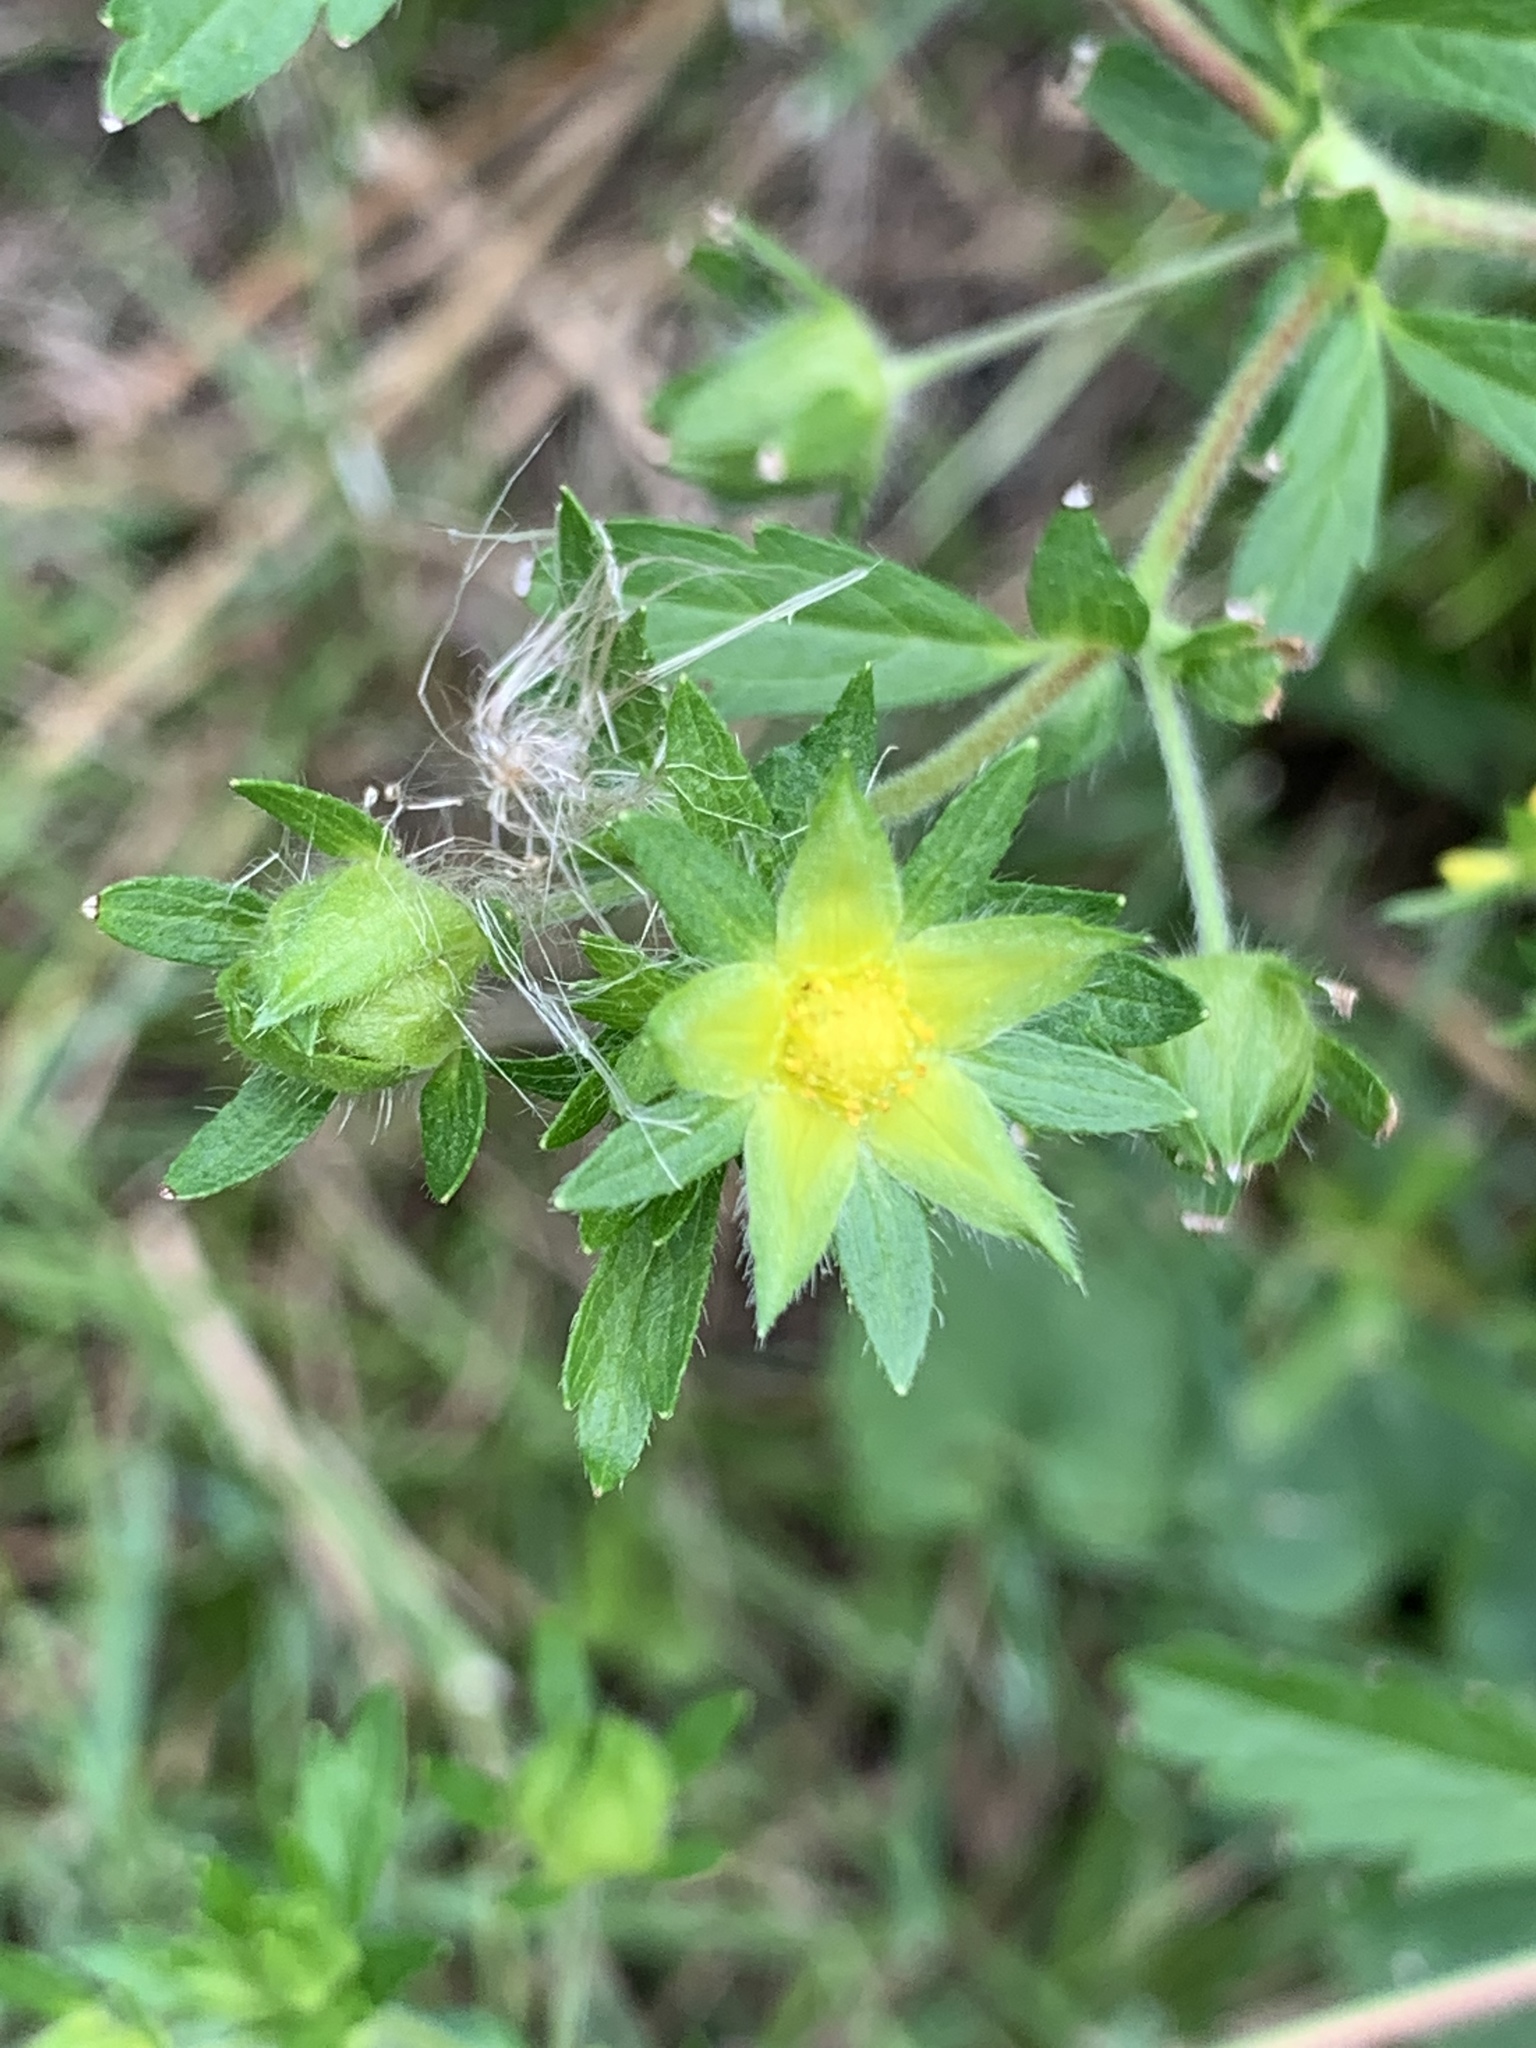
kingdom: Plantae
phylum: Tracheophyta
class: Magnoliopsida
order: Rosales
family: Rosaceae
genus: Potentilla
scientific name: Potentilla norvegica
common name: Ternate-leaved cinquefoil
